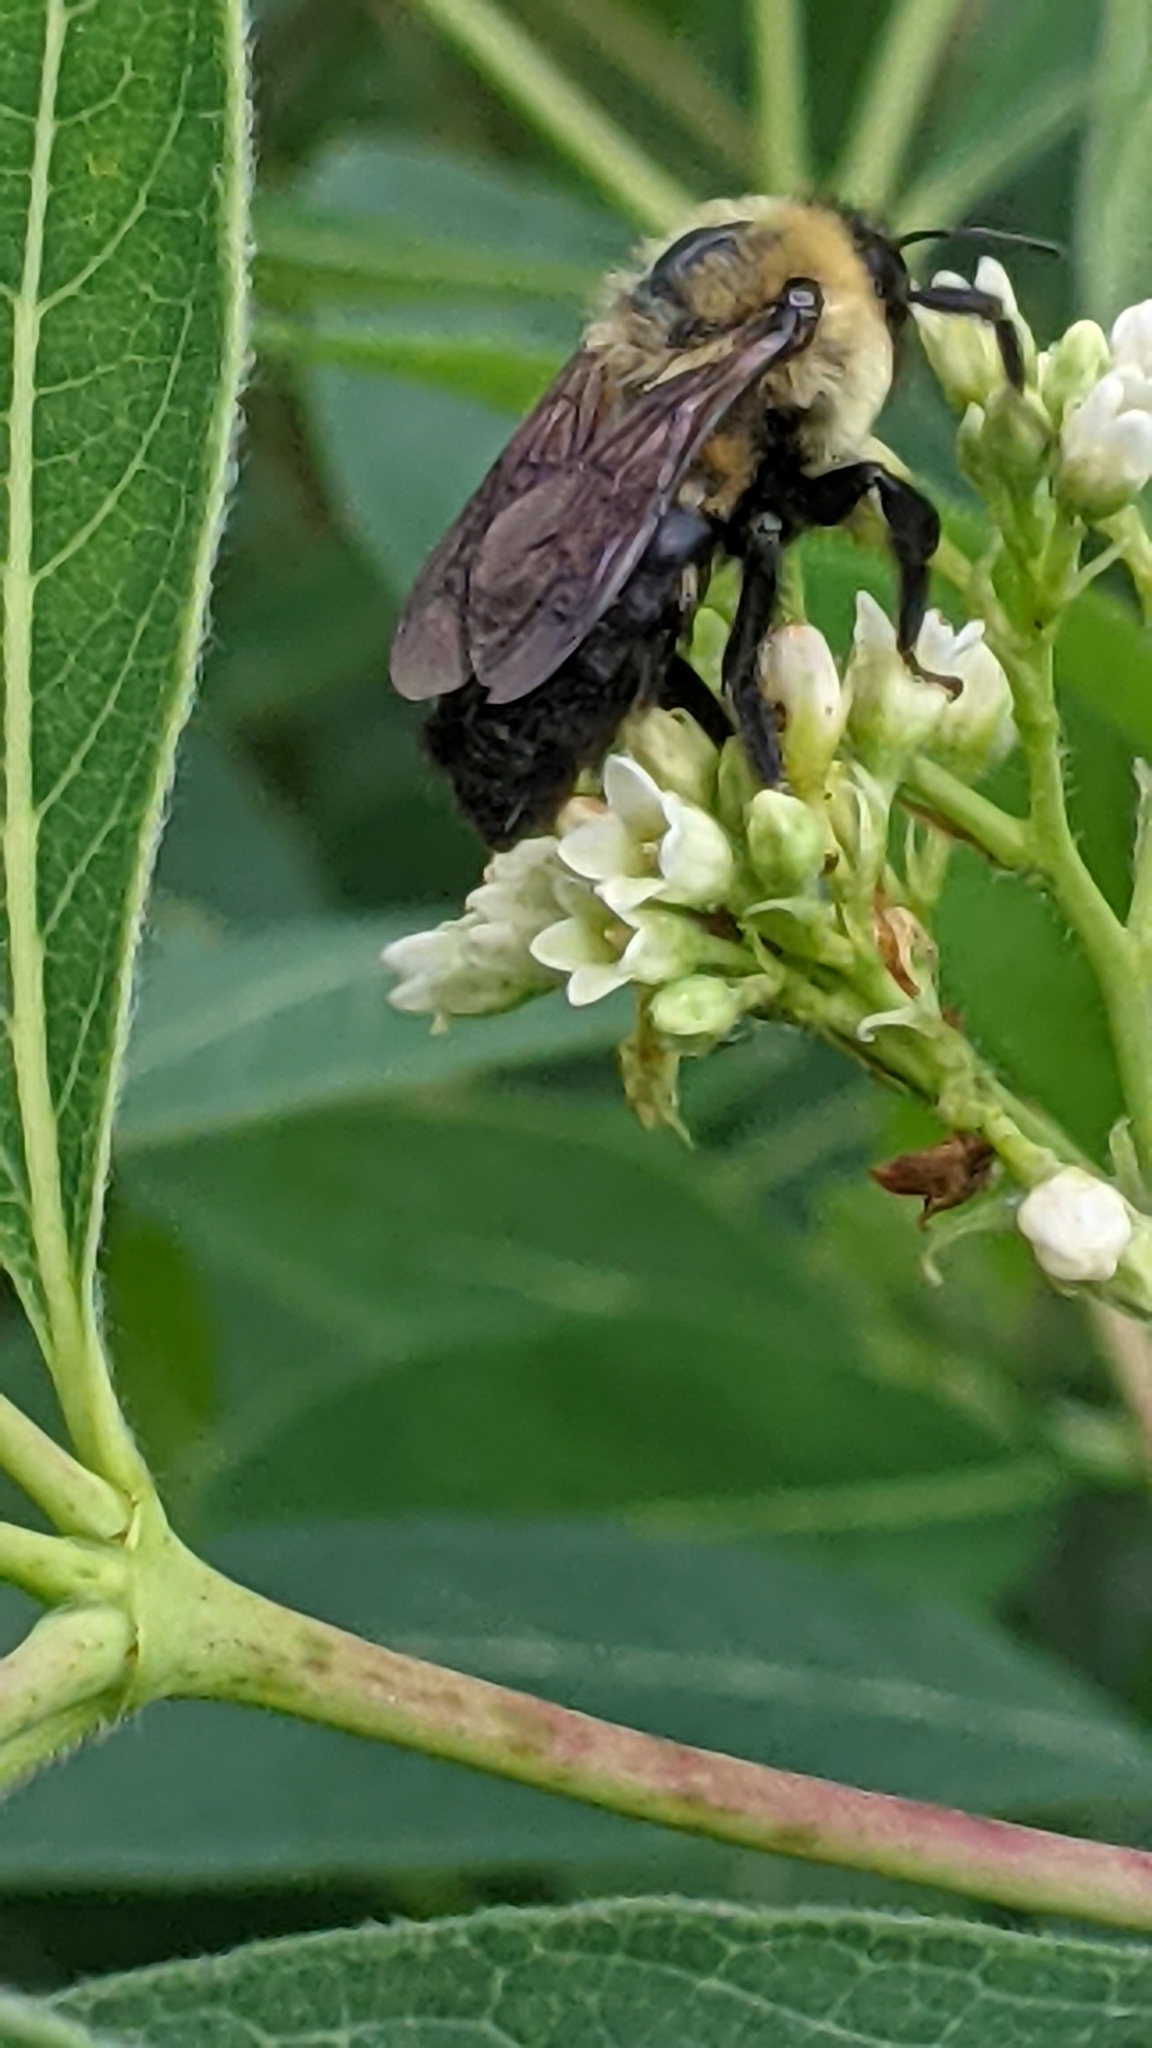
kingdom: Animalia
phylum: Arthropoda
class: Insecta
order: Hymenoptera
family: Apidae
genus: Bombus
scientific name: Bombus griseocollis
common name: Brown-belted bumble bee
